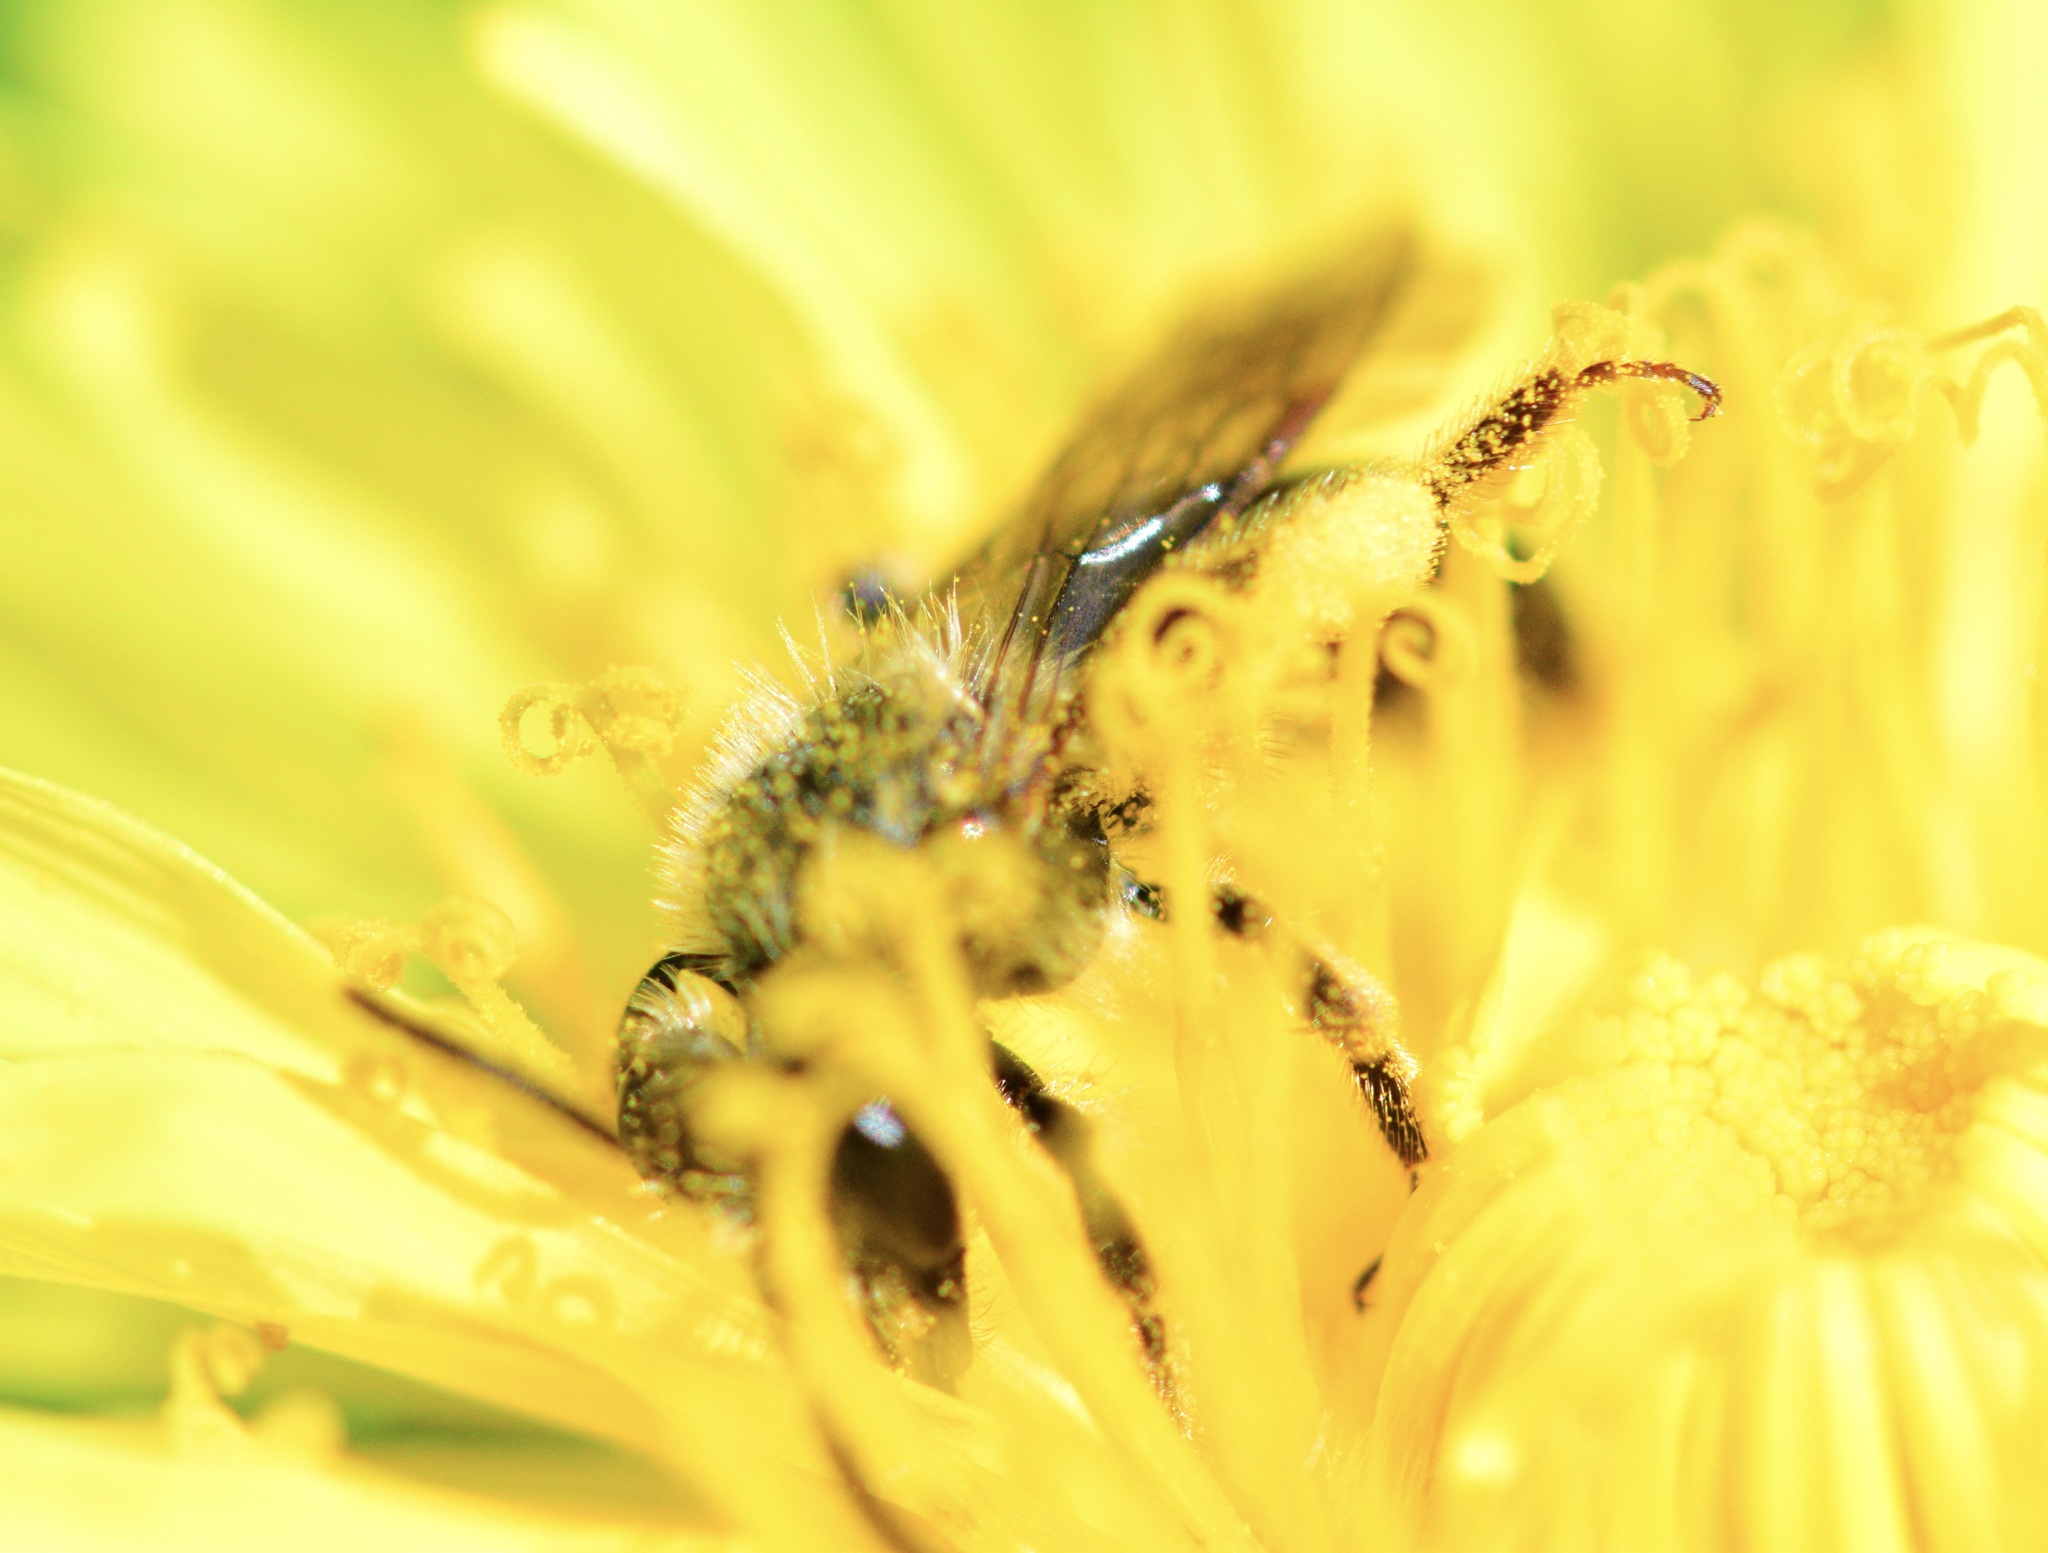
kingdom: Animalia
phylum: Arthropoda
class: Insecta
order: Hymenoptera
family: Andrenidae
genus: Andrena
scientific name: Andrena rufosignata
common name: Brown-fovea miner
